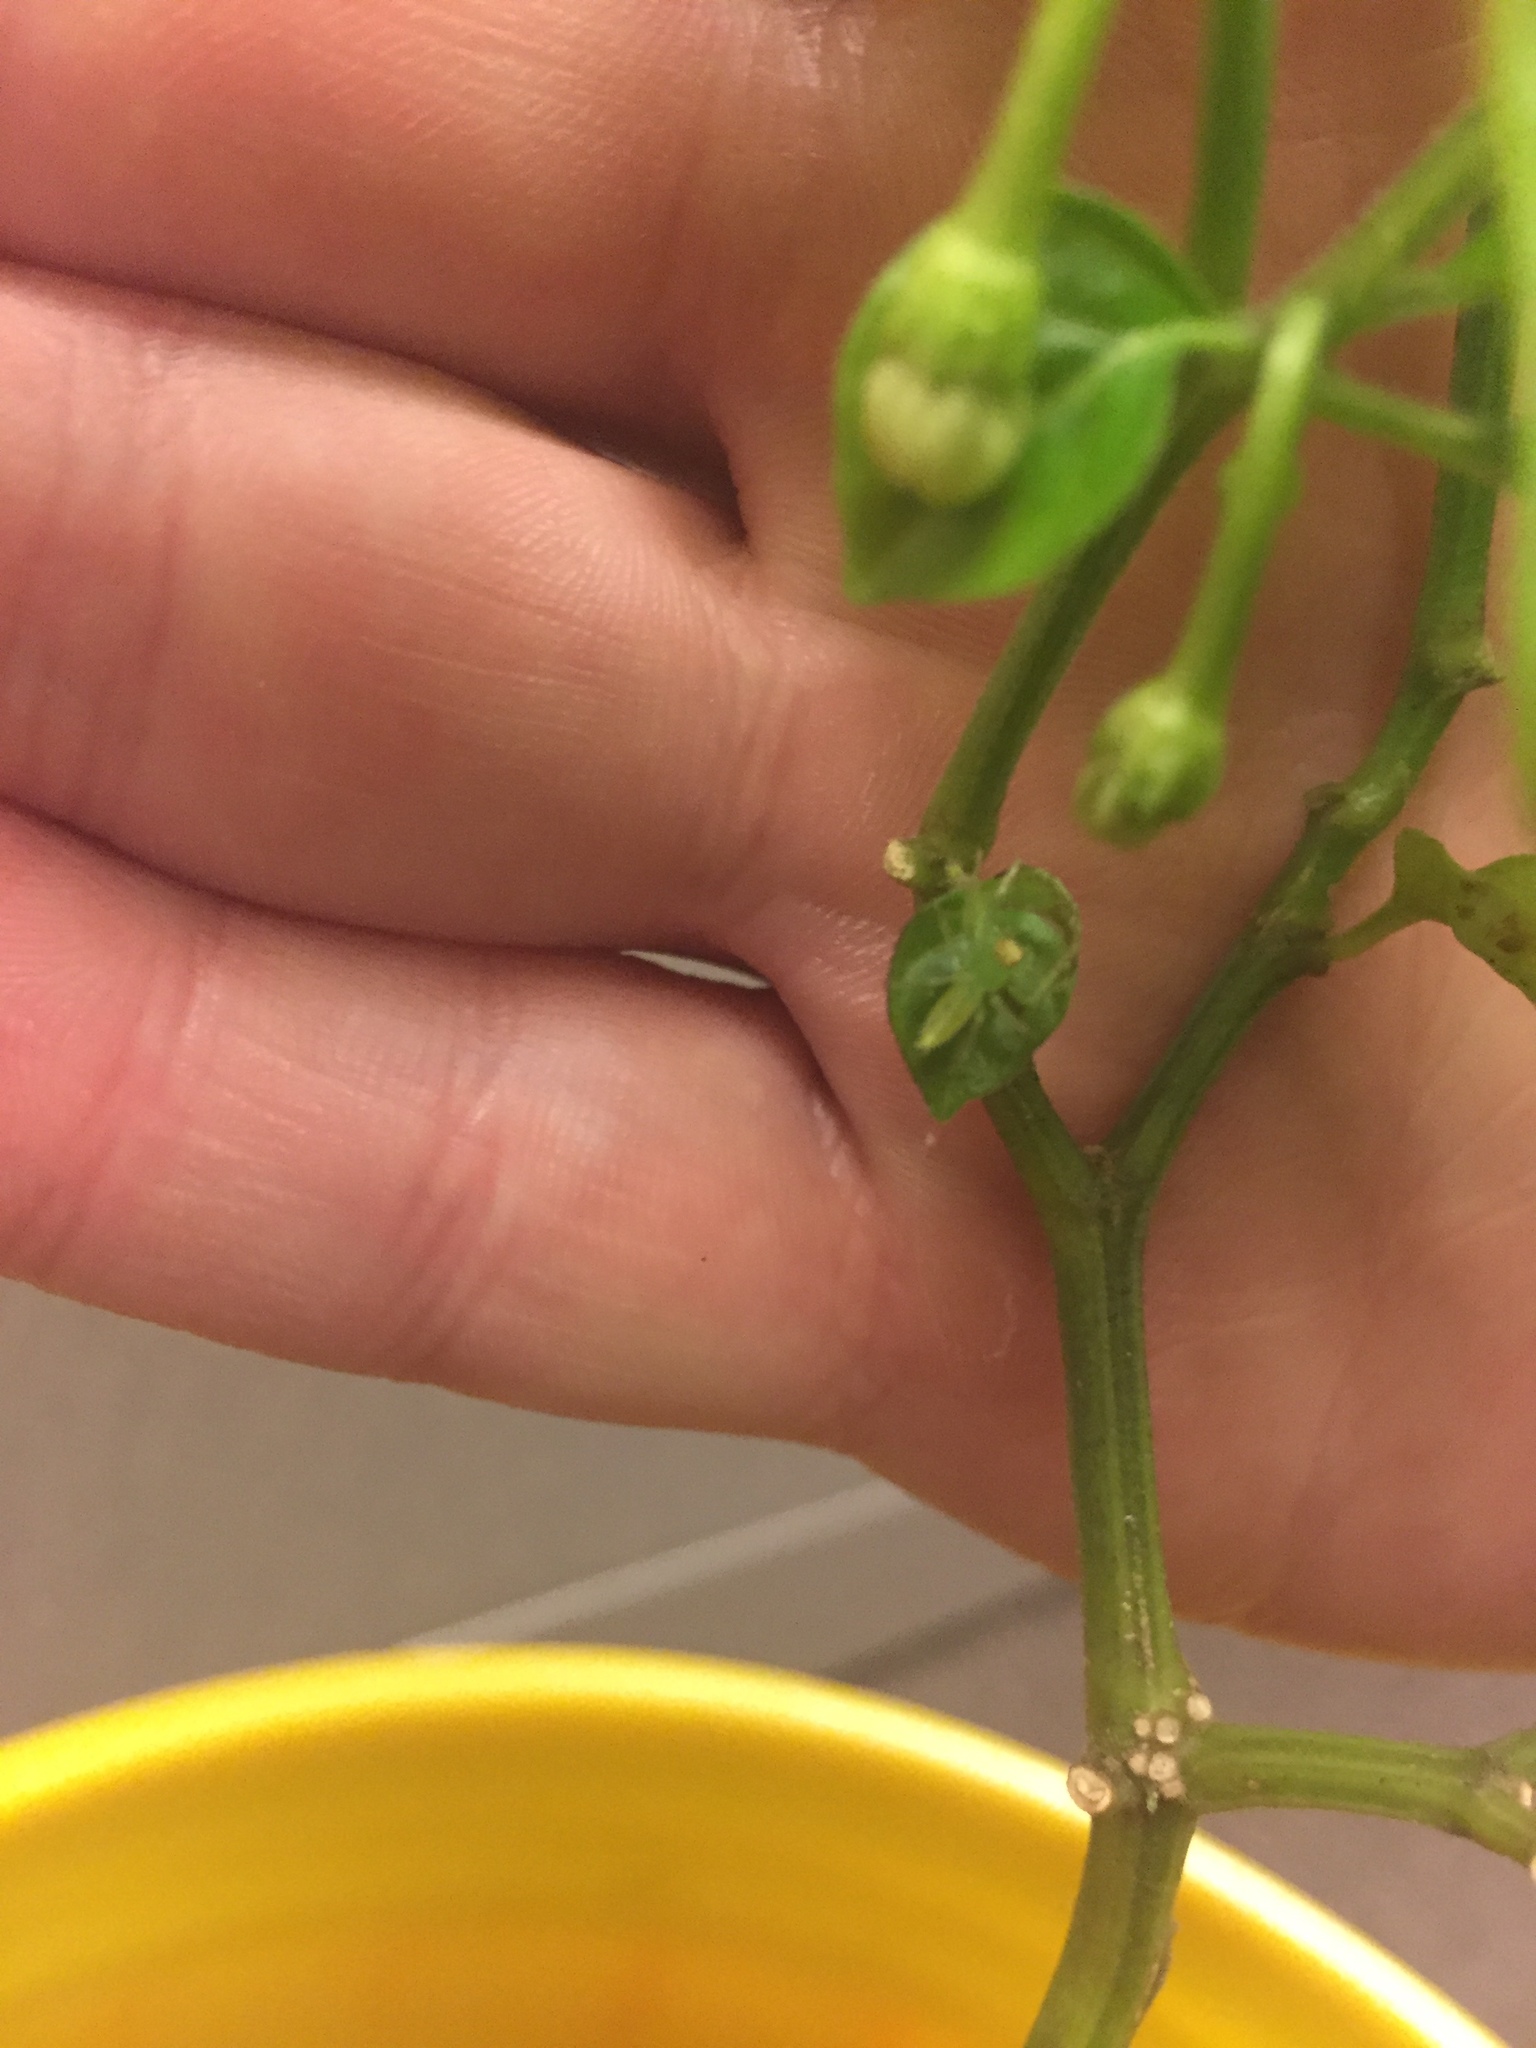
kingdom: Animalia
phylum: Arthropoda
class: Arachnida
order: Araneae
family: Salticidae
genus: Lyssomanes
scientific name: Lyssomanes viridis
